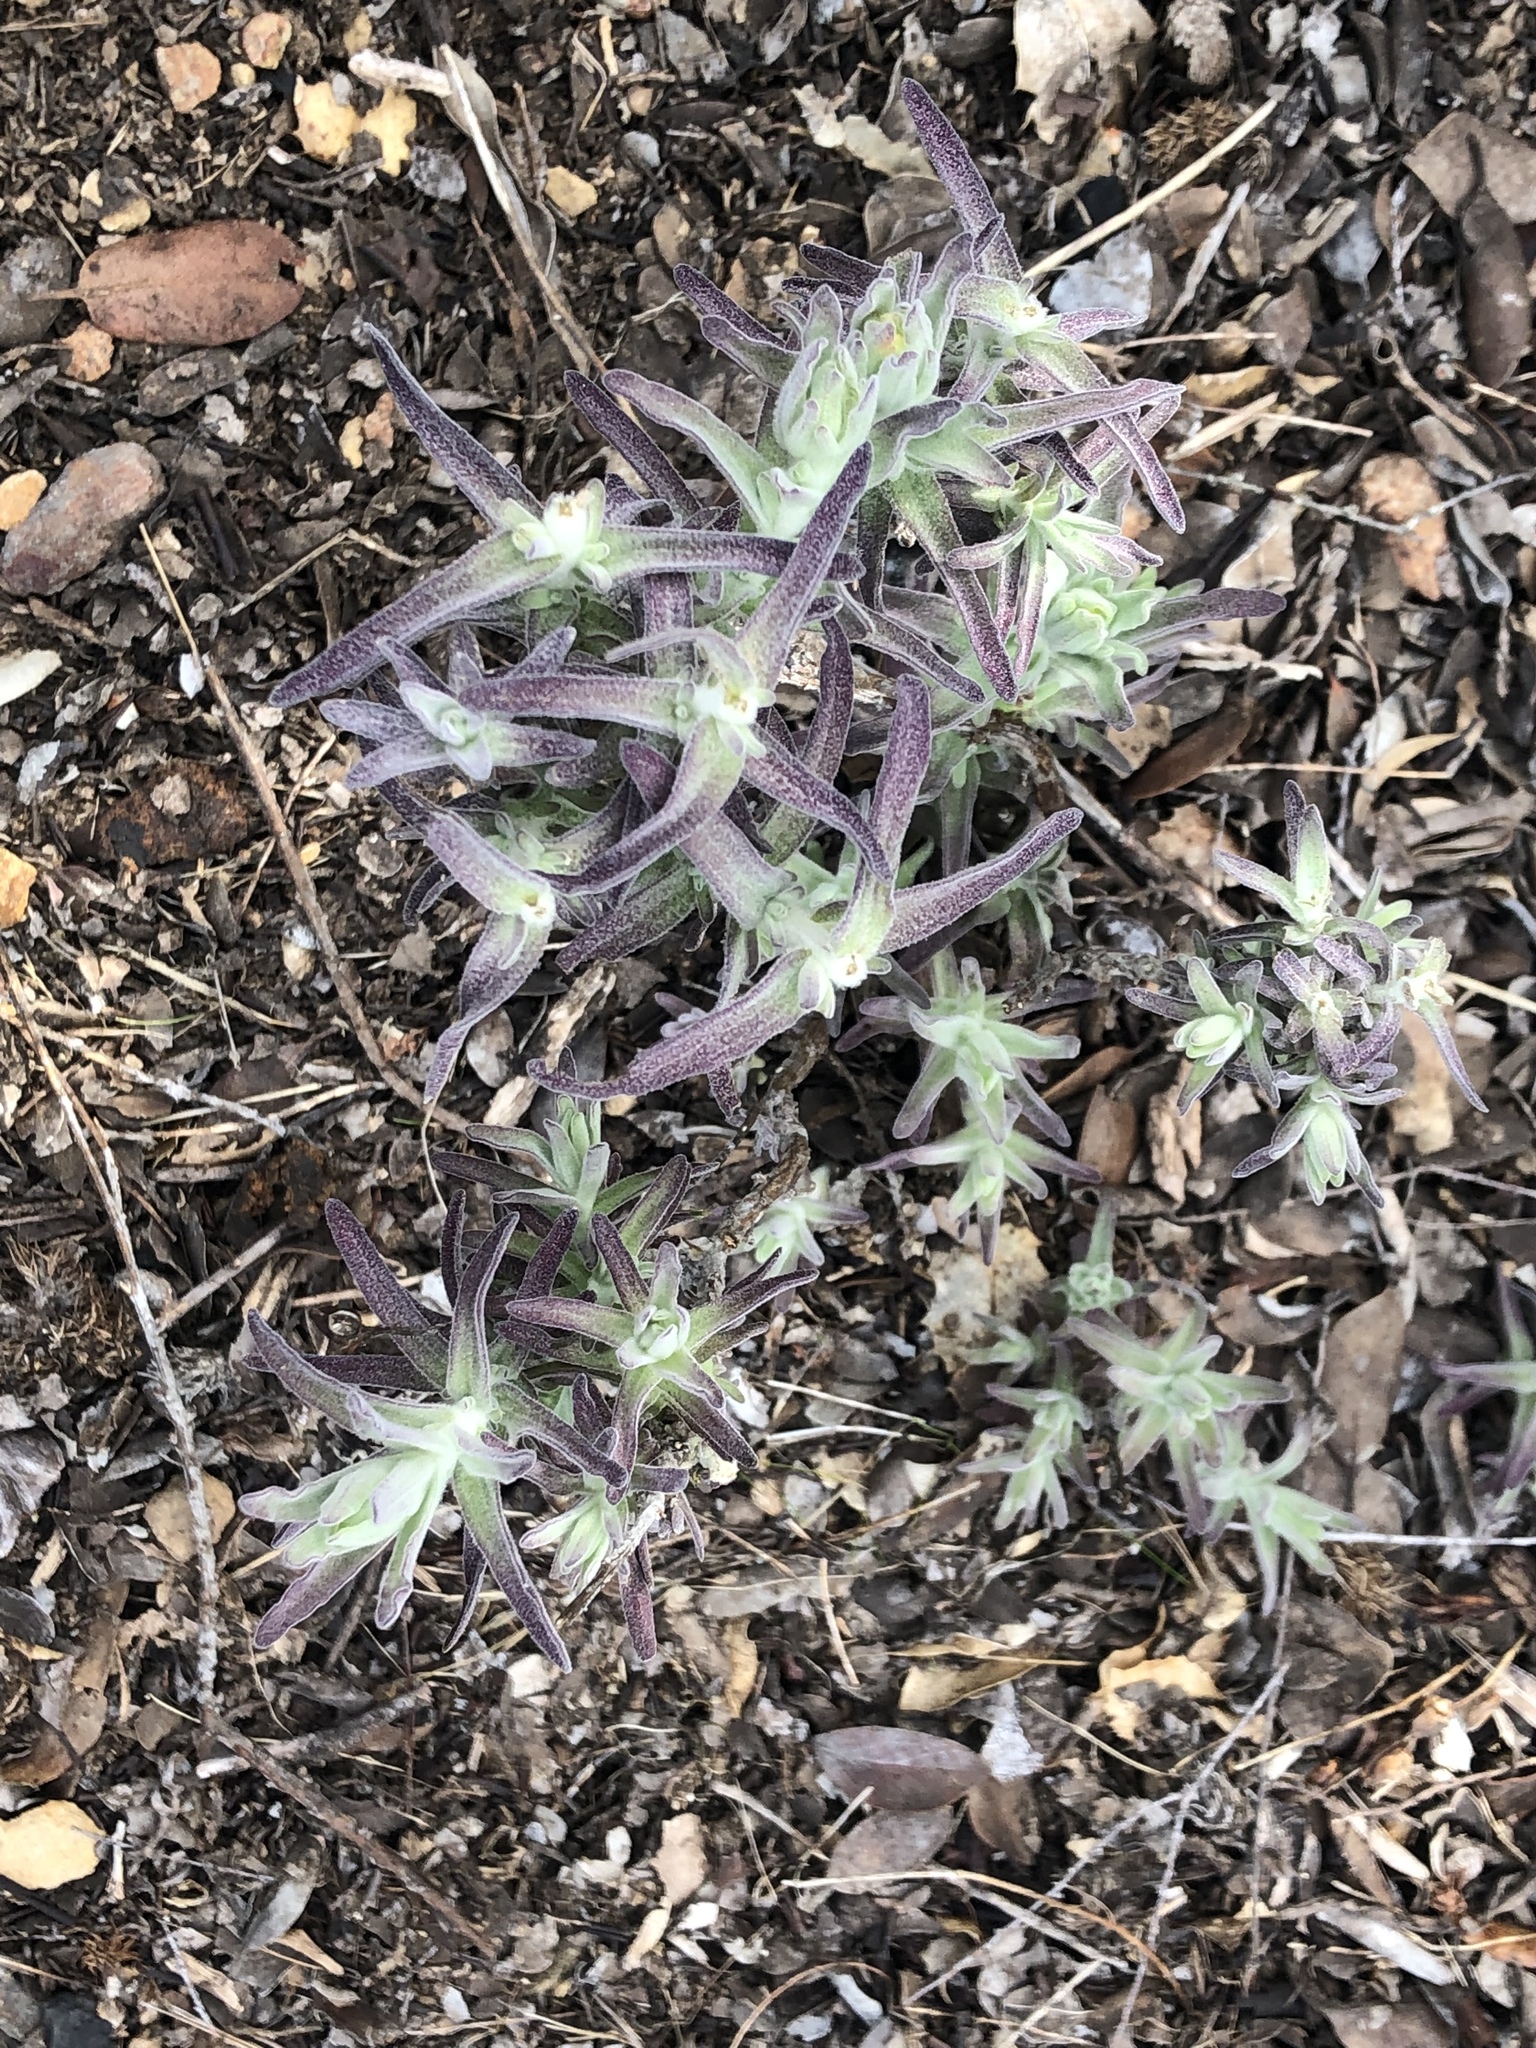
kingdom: Plantae
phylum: Tracheophyta
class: Magnoliopsida
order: Lamiales
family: Orobanchaceae
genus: Castilleja
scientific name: Castilleja foliolosa
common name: Woolly indian paintbrush
